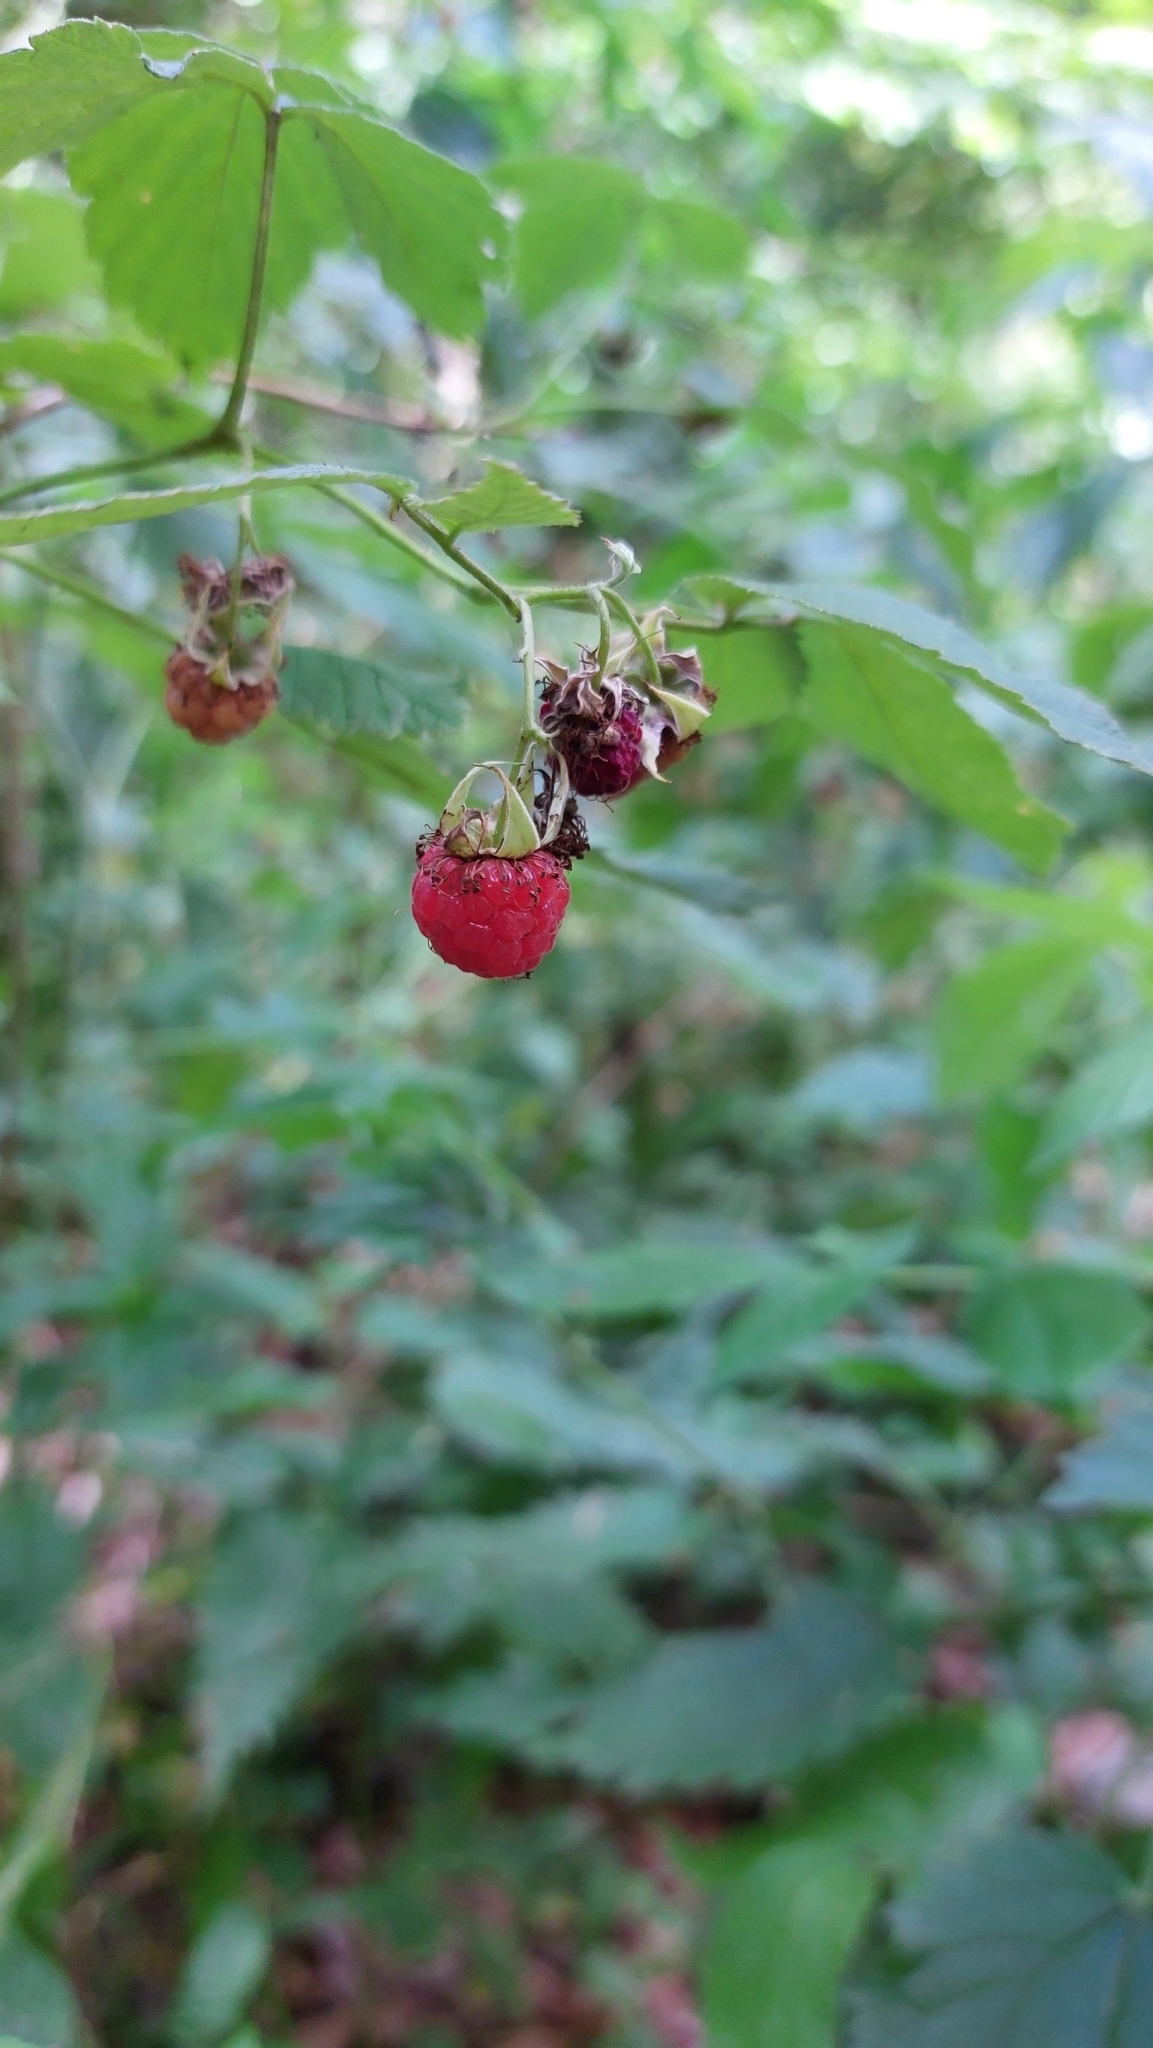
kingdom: Plantae
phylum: Tracheophyta
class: Magnoliopsida
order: Rosales
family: Rosaceae
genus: Rubus
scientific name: Rubus idaeus
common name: Raspberry
